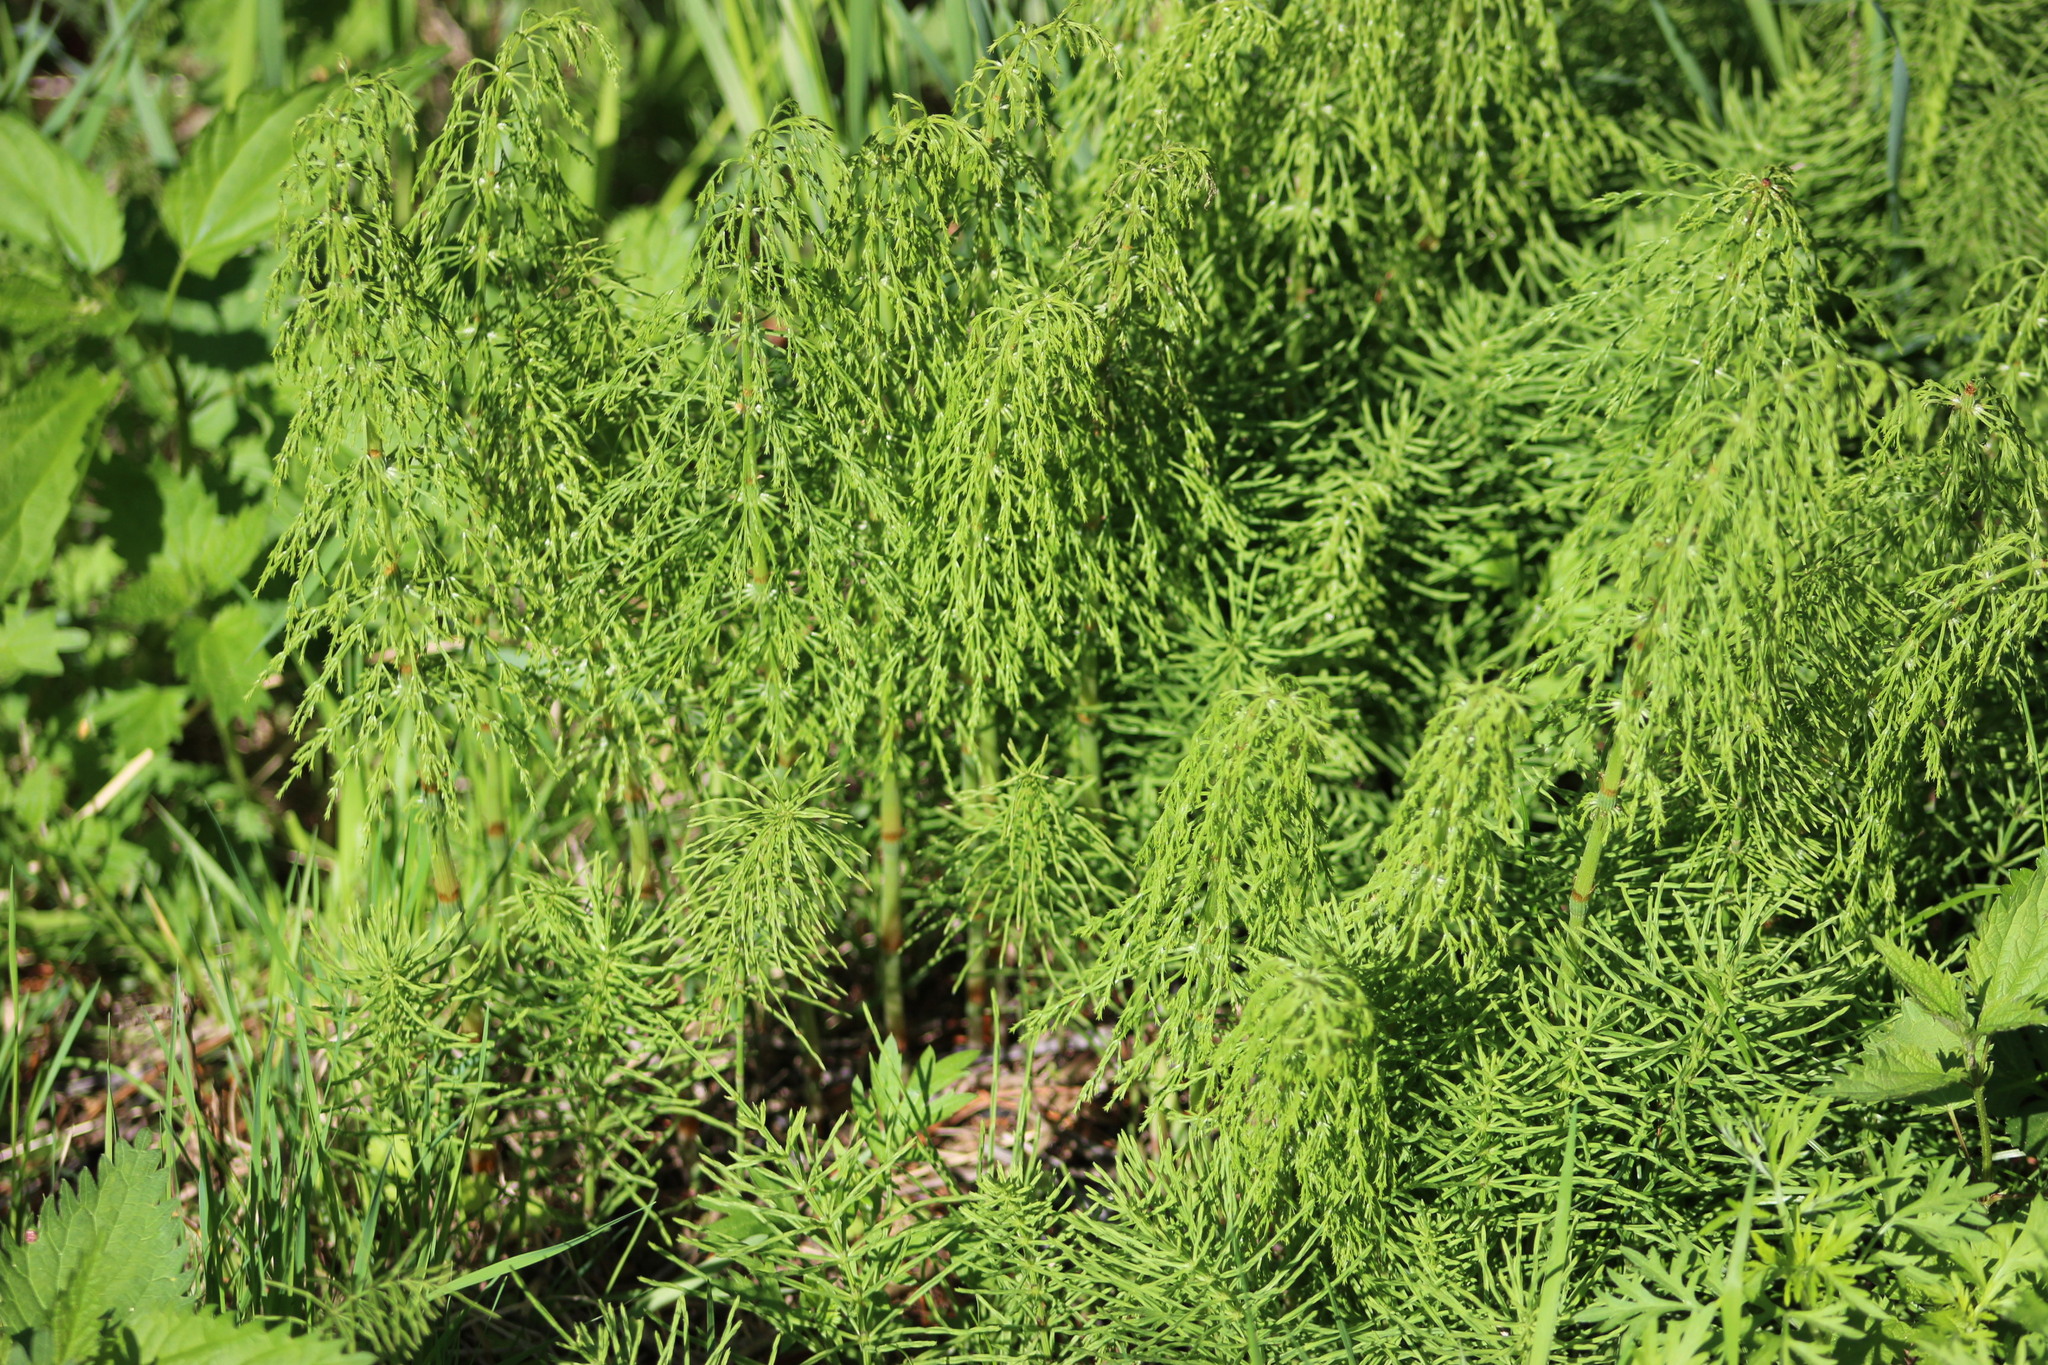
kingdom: Plantae
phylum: Tracheophyta
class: Polypodiopsida
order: Equisetales
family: Equisetaceae
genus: Equisetum
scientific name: Equisetum sylvaticum
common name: Wood horsetail
